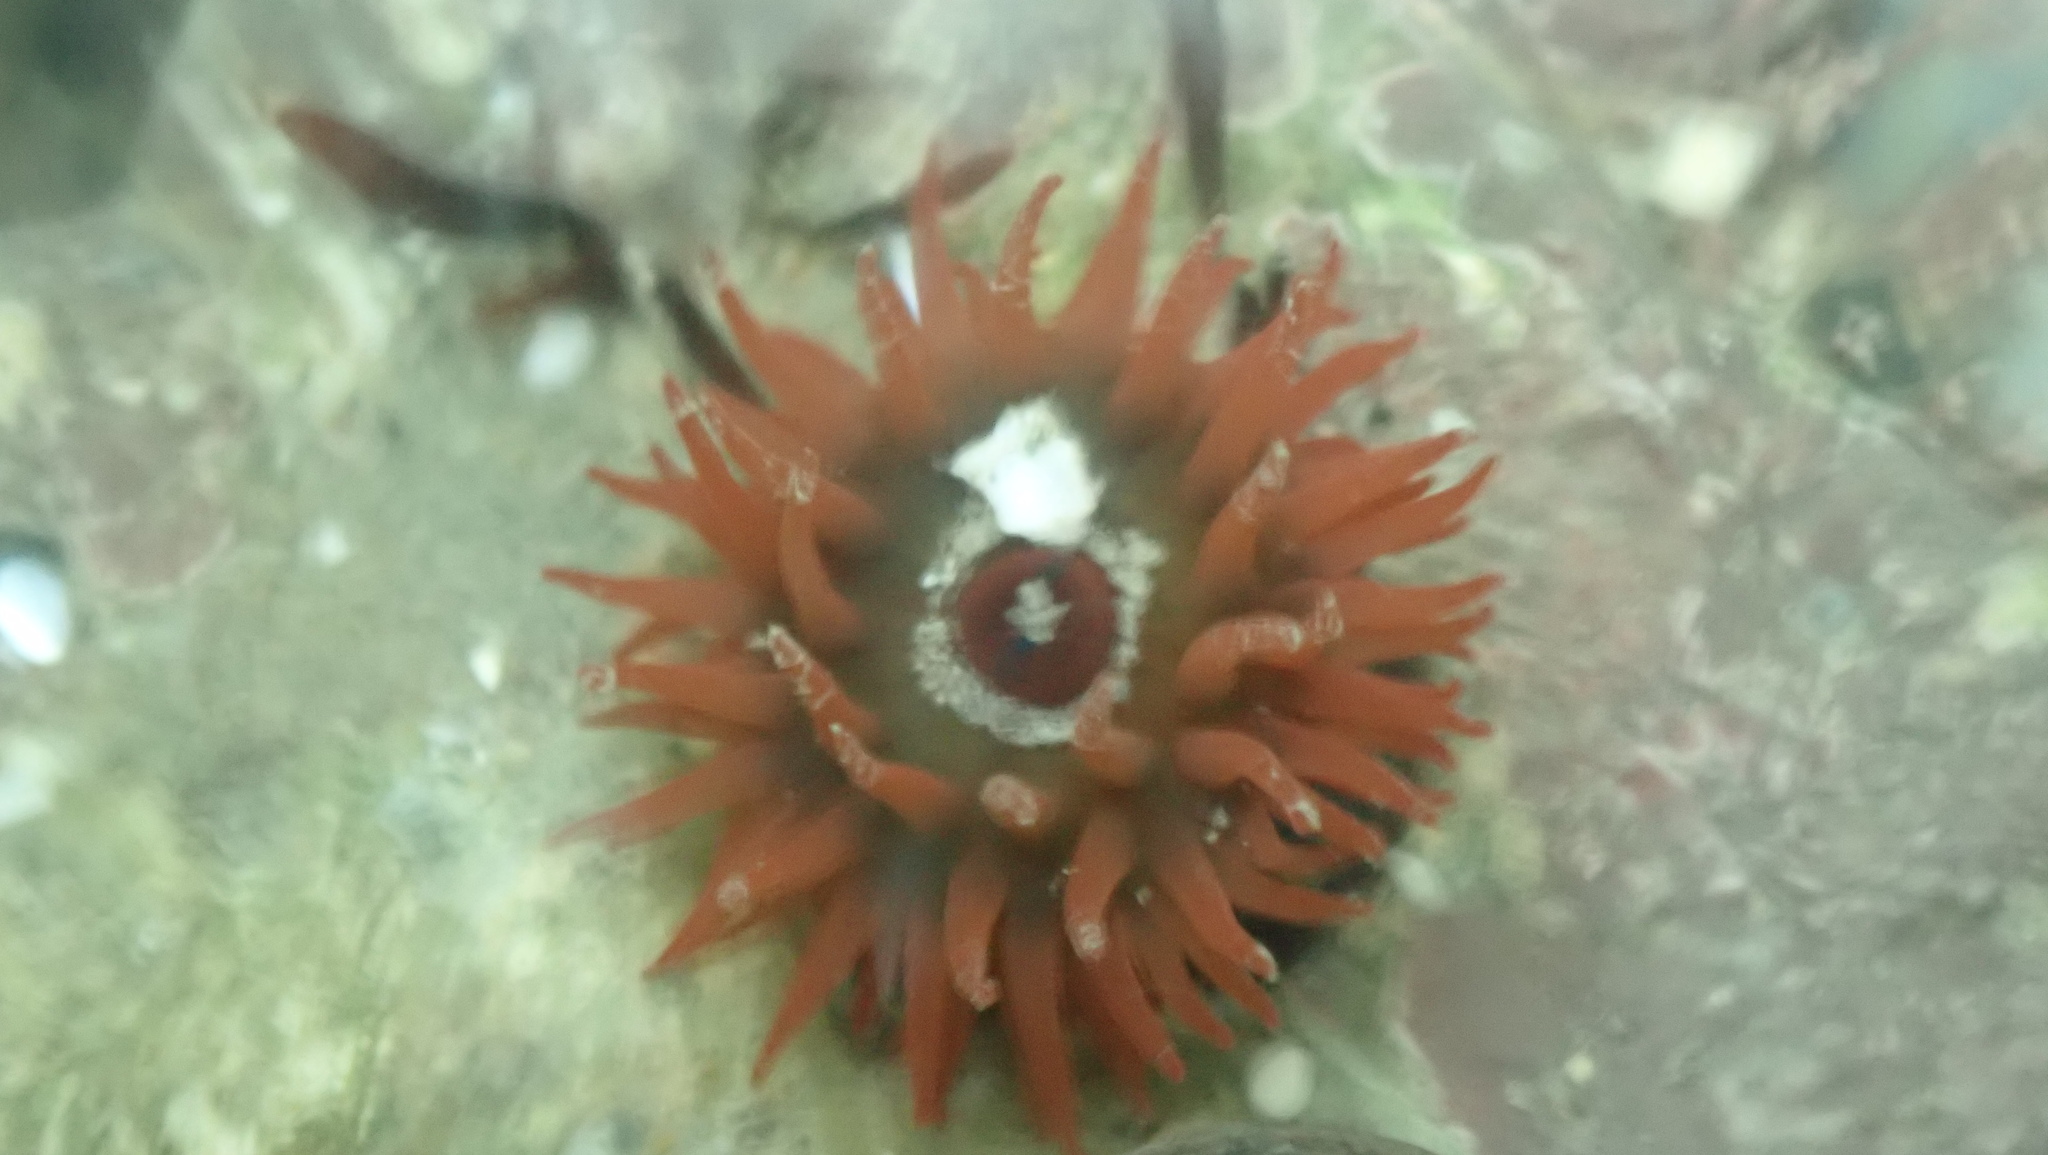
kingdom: Animalia
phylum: Cnidaria
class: Anthozoa
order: Actiniaria
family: Actiniidae
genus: Actinia
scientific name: Actinia equina
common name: Beadlet anemone
